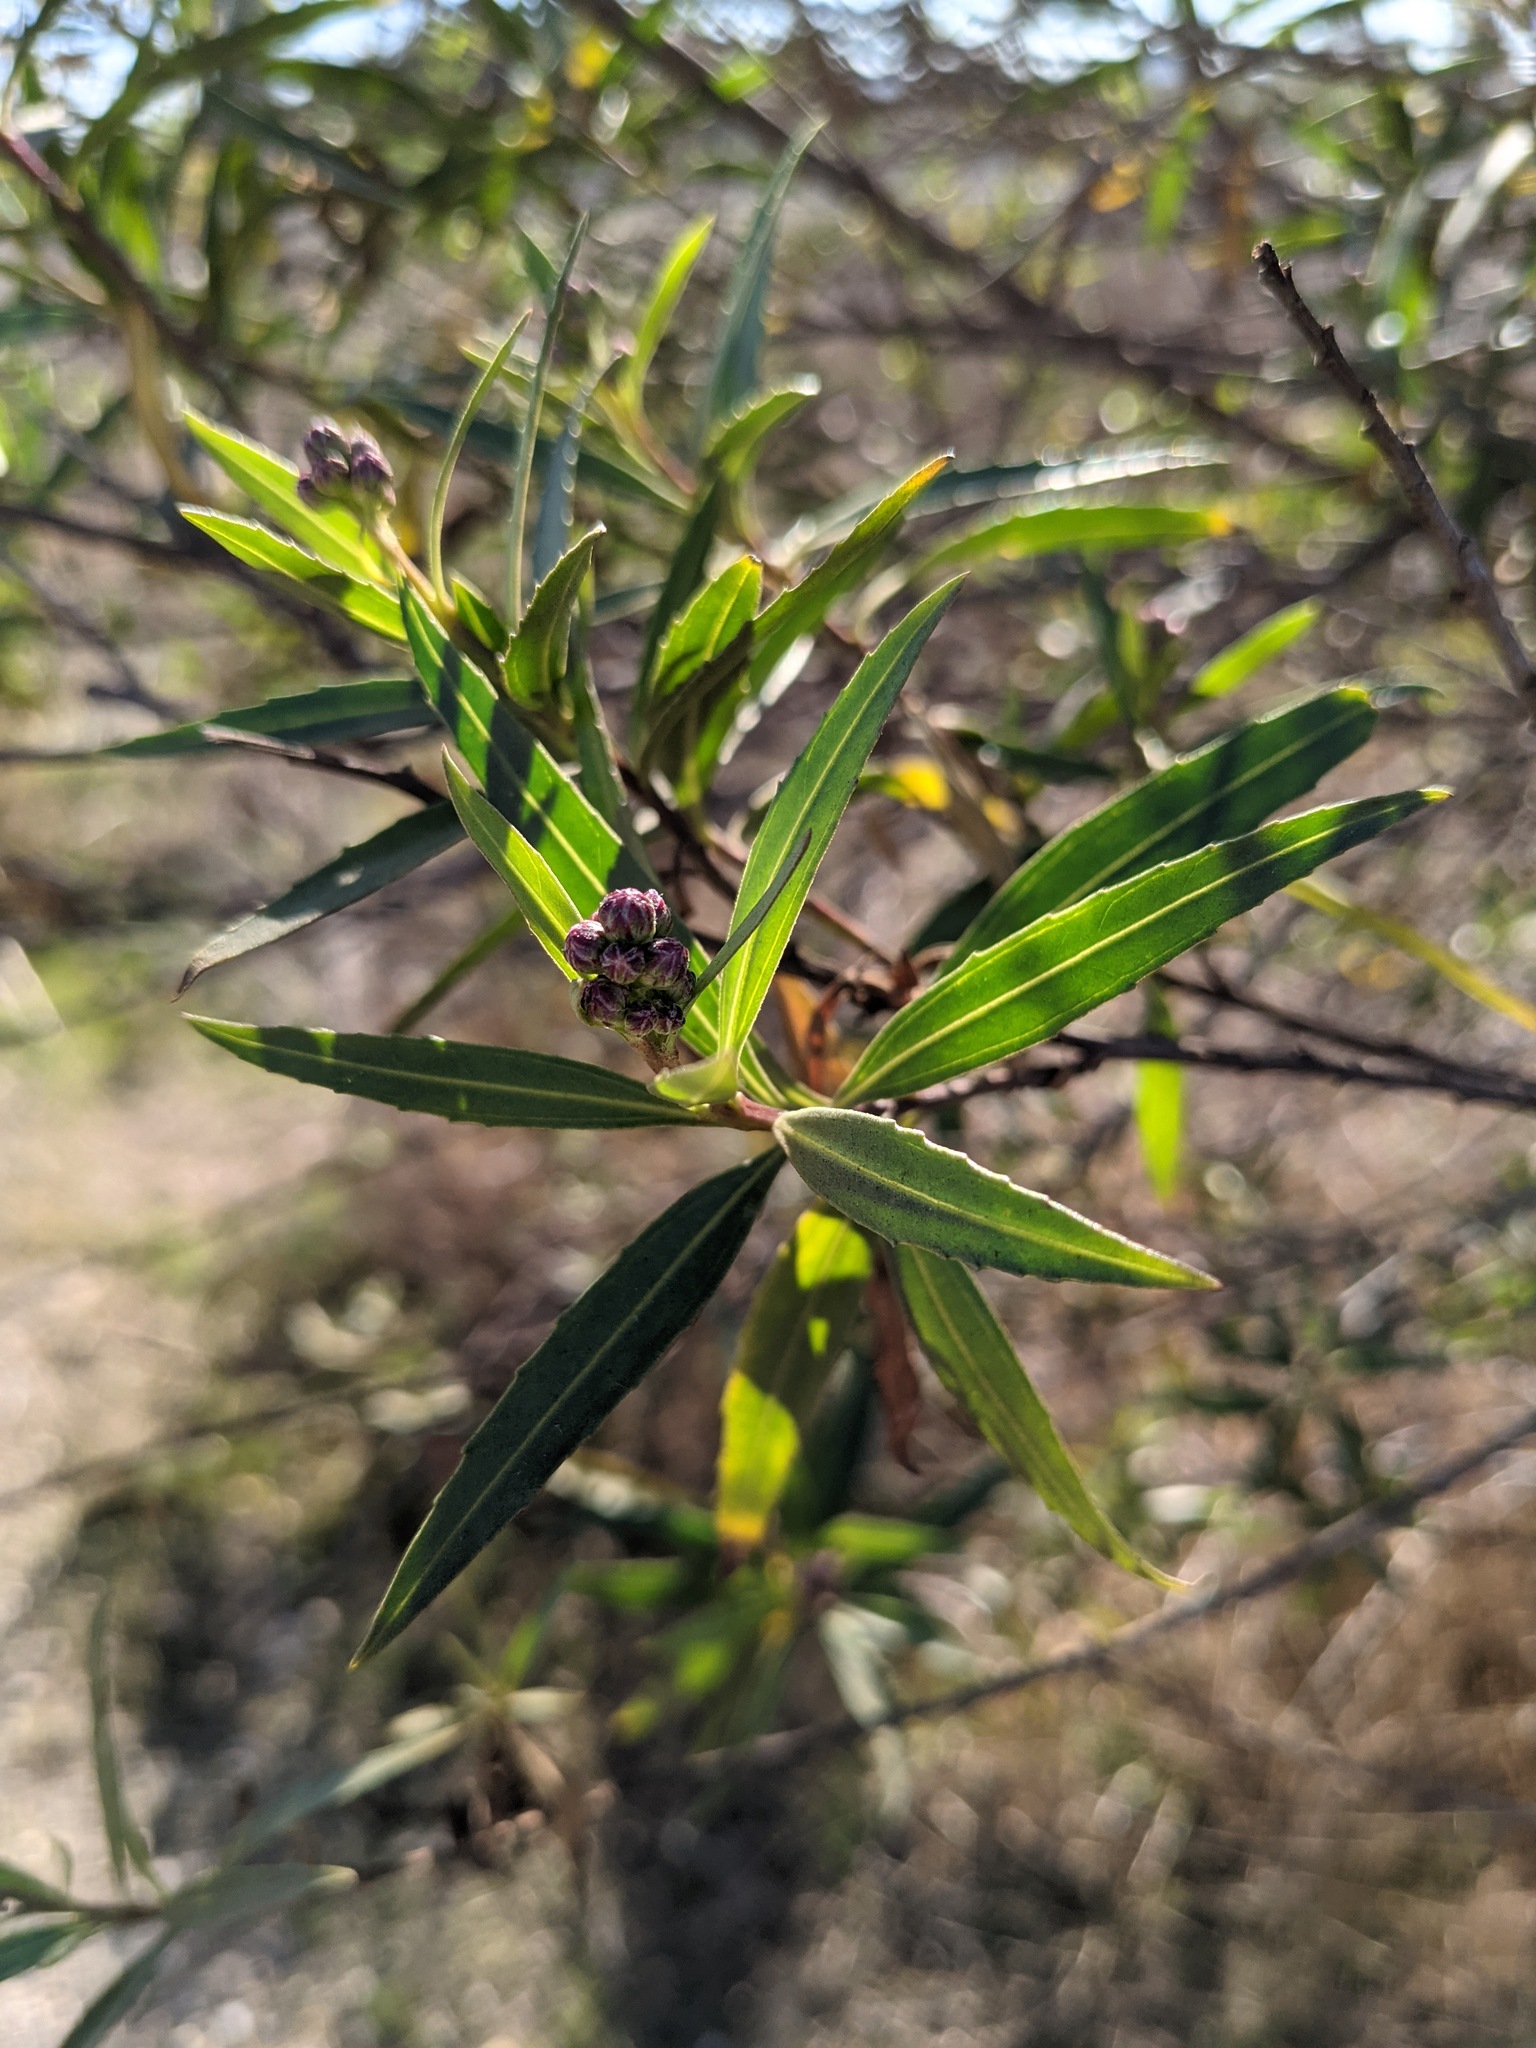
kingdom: Plantae
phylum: Tracheophyta
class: Magnoliopsida
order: Asterales
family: Asteraceae
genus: Baccharis
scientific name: Baccharis salicifolia
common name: Sticky baccharis
